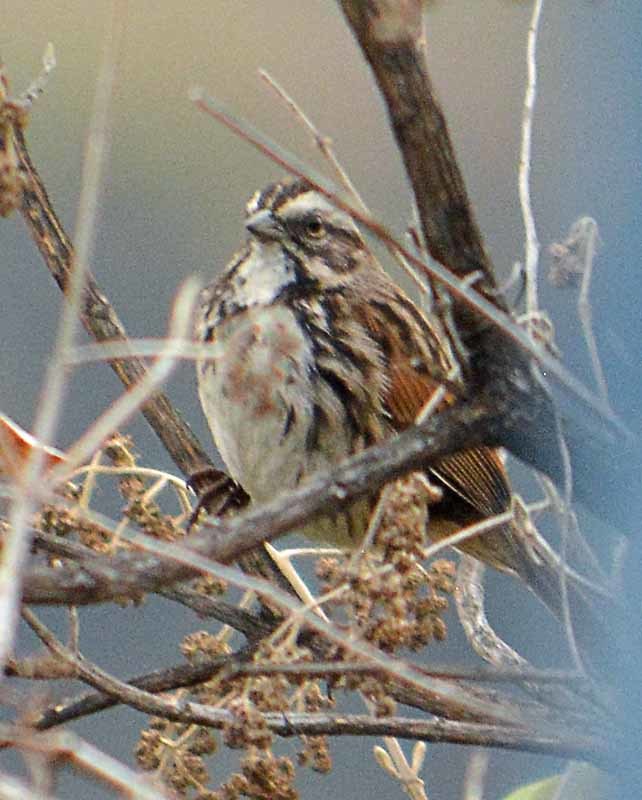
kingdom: Animalia
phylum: Chordata
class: Aves
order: Passeriformes
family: Passerellidae
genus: Melospiza
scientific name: Melospiza melodia
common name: Song sparrow
